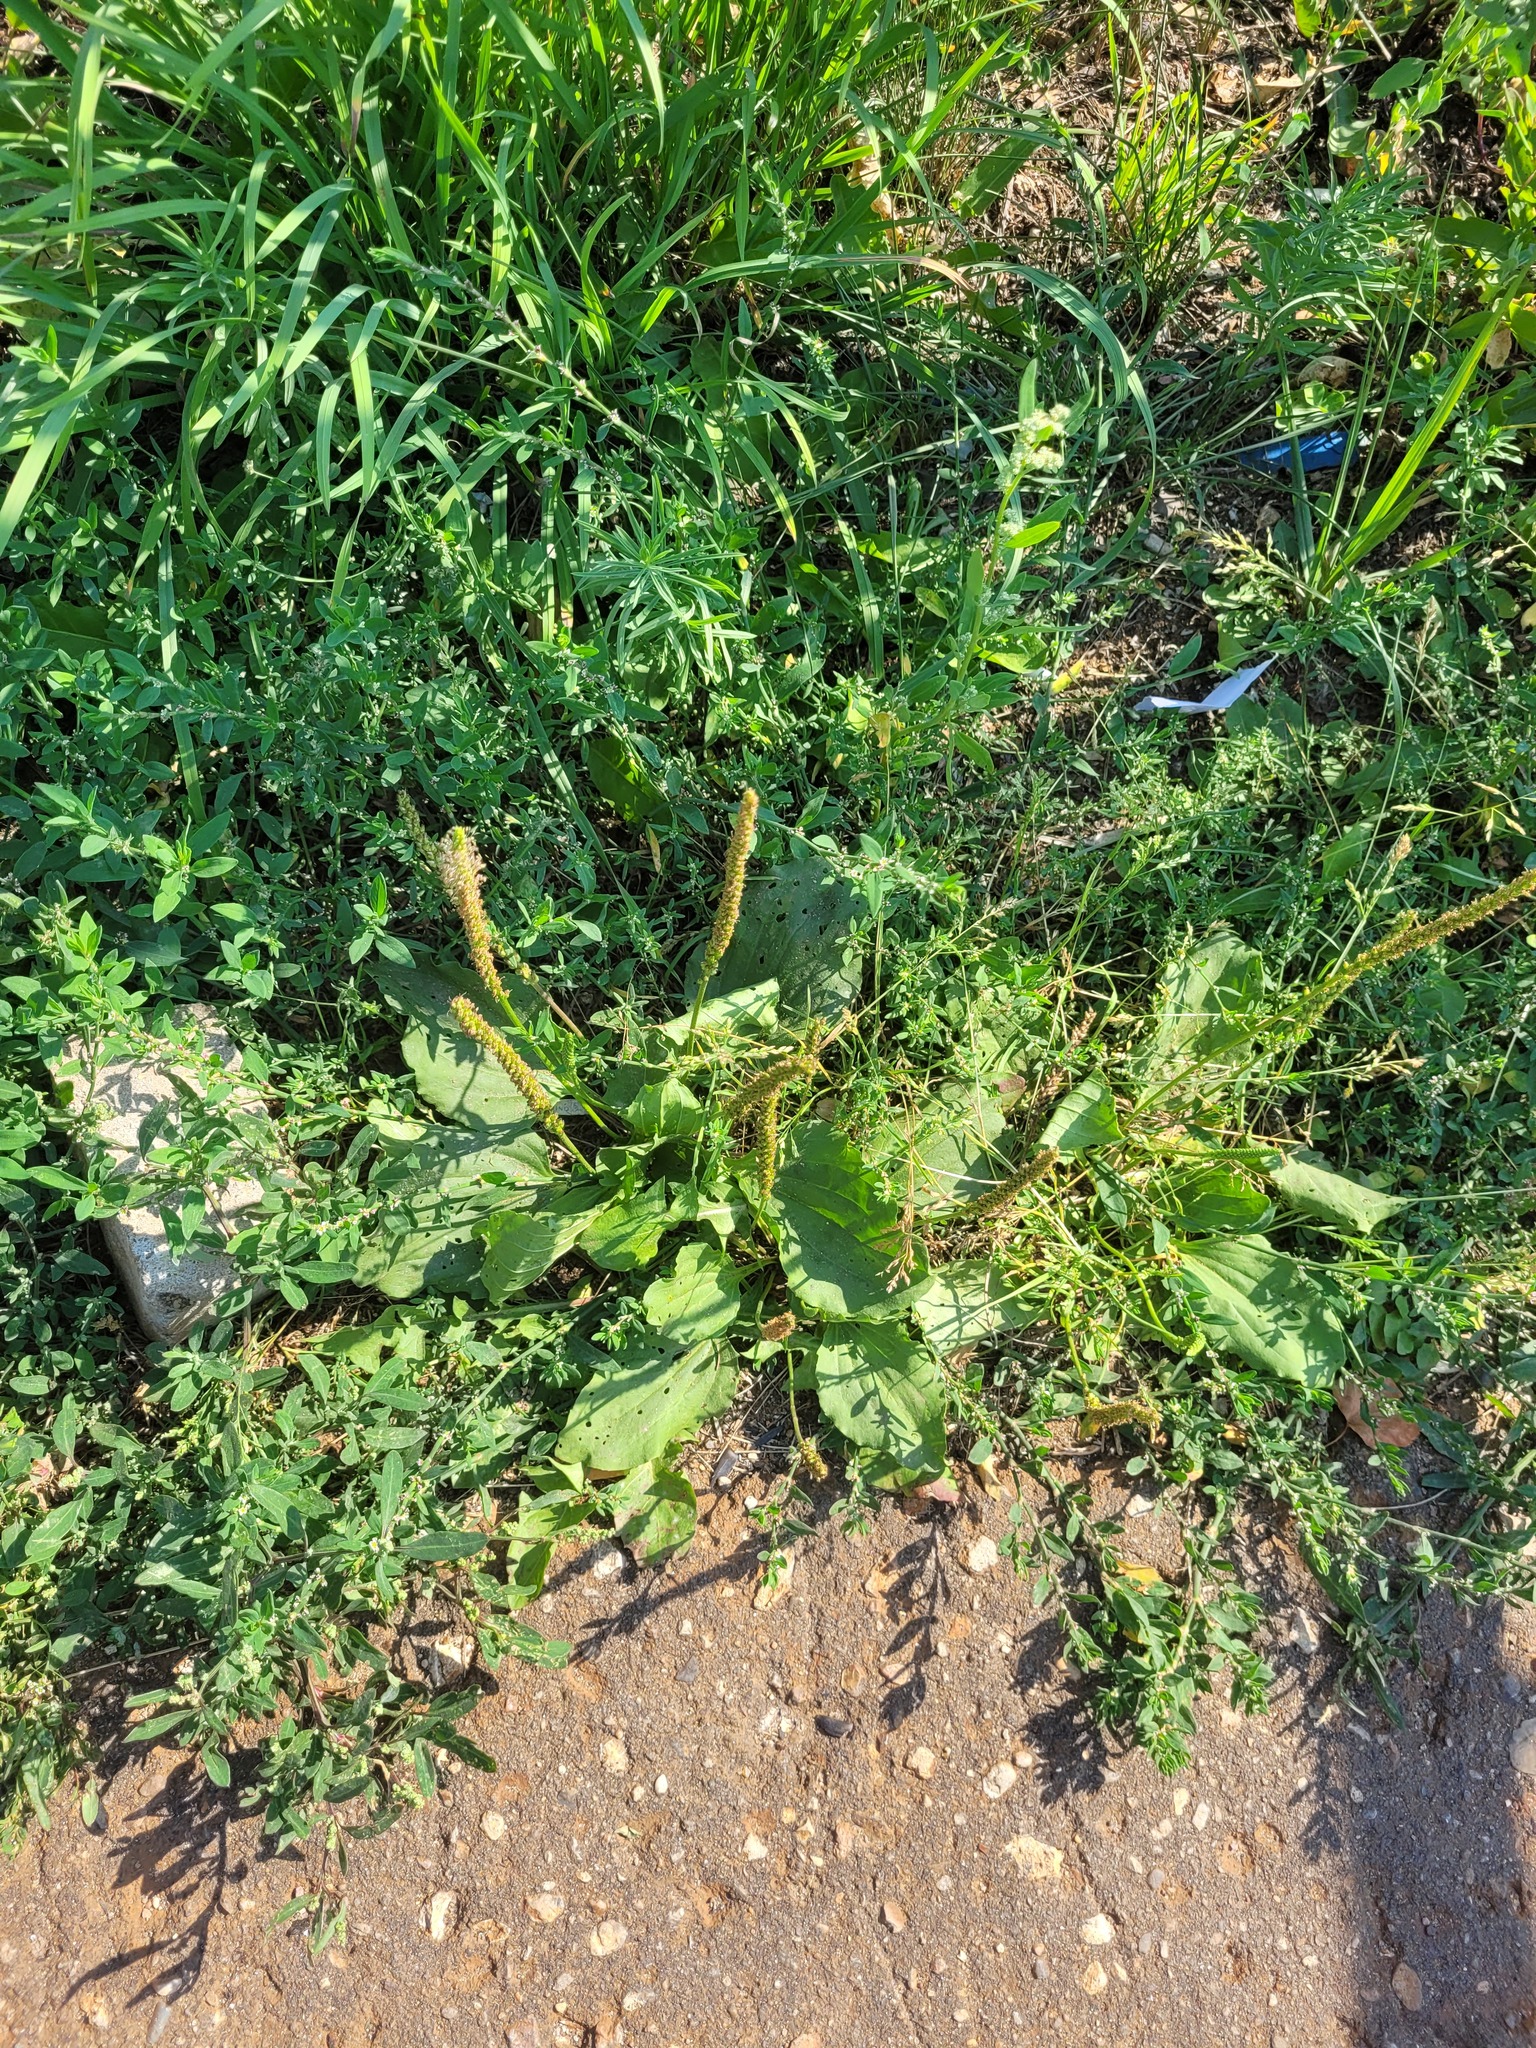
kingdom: Plantae
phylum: Tracheophyta
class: Magnoliopsida
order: Lamiales
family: Plantaginaceae
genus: Plantago
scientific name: Plantago major
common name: Common plantain
